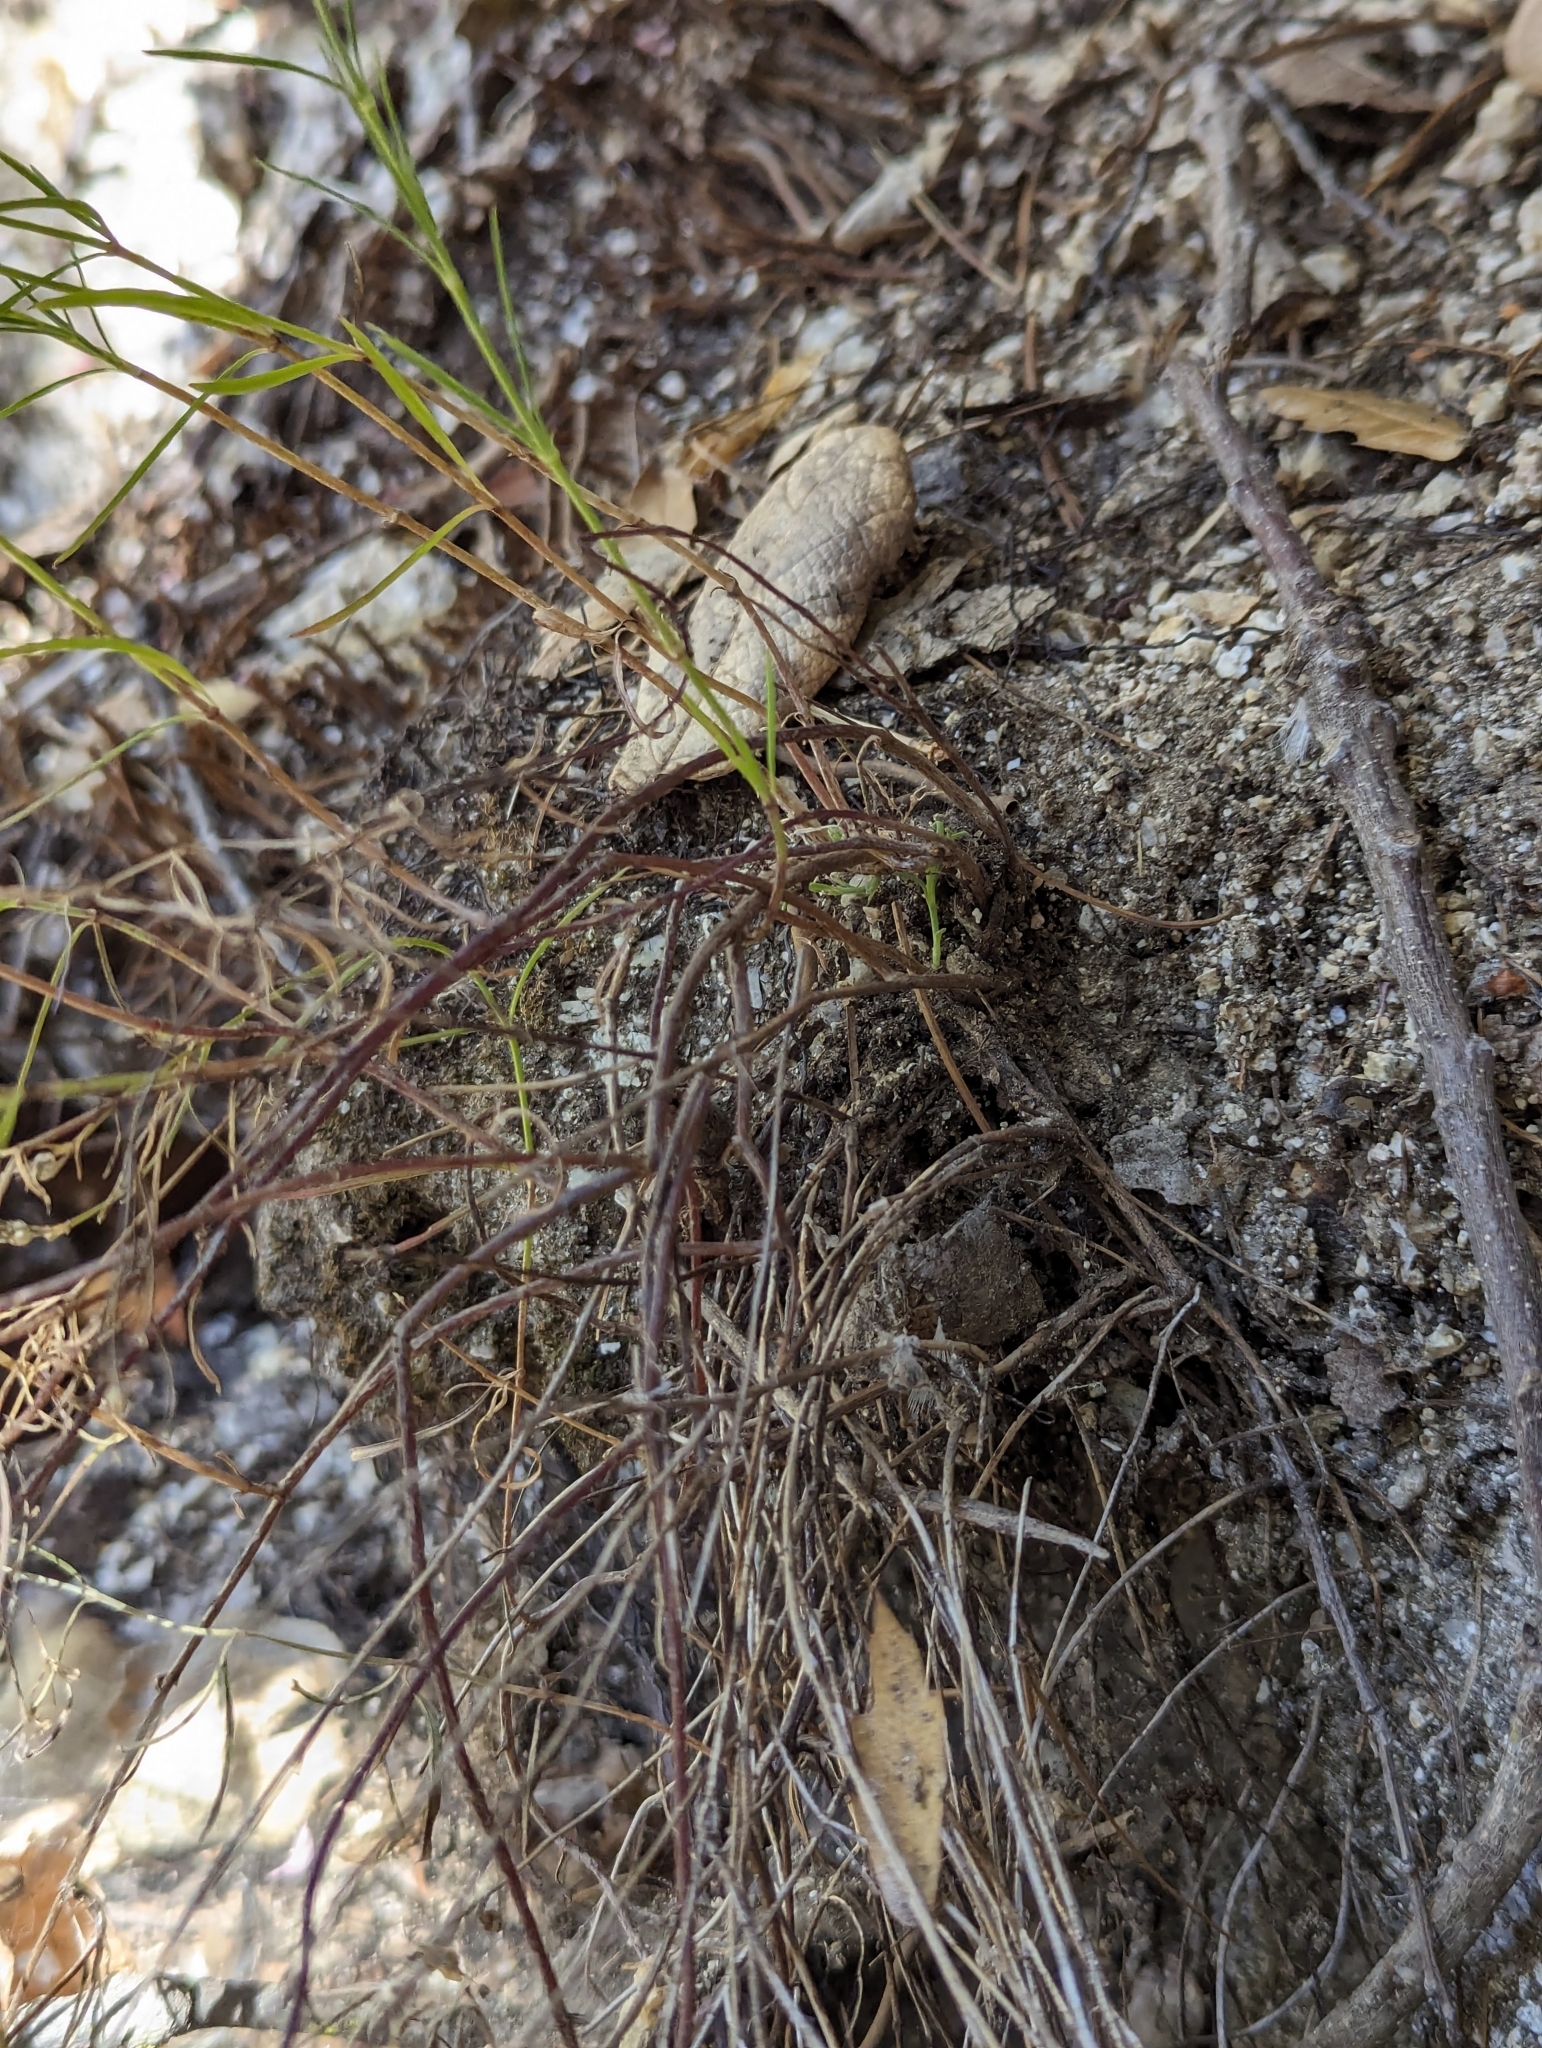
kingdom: Plantae
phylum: Tracheophyta
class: Magnoliopsida
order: Gentianales
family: Rubiaceae
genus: Stenotis
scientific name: Stenotis australis
